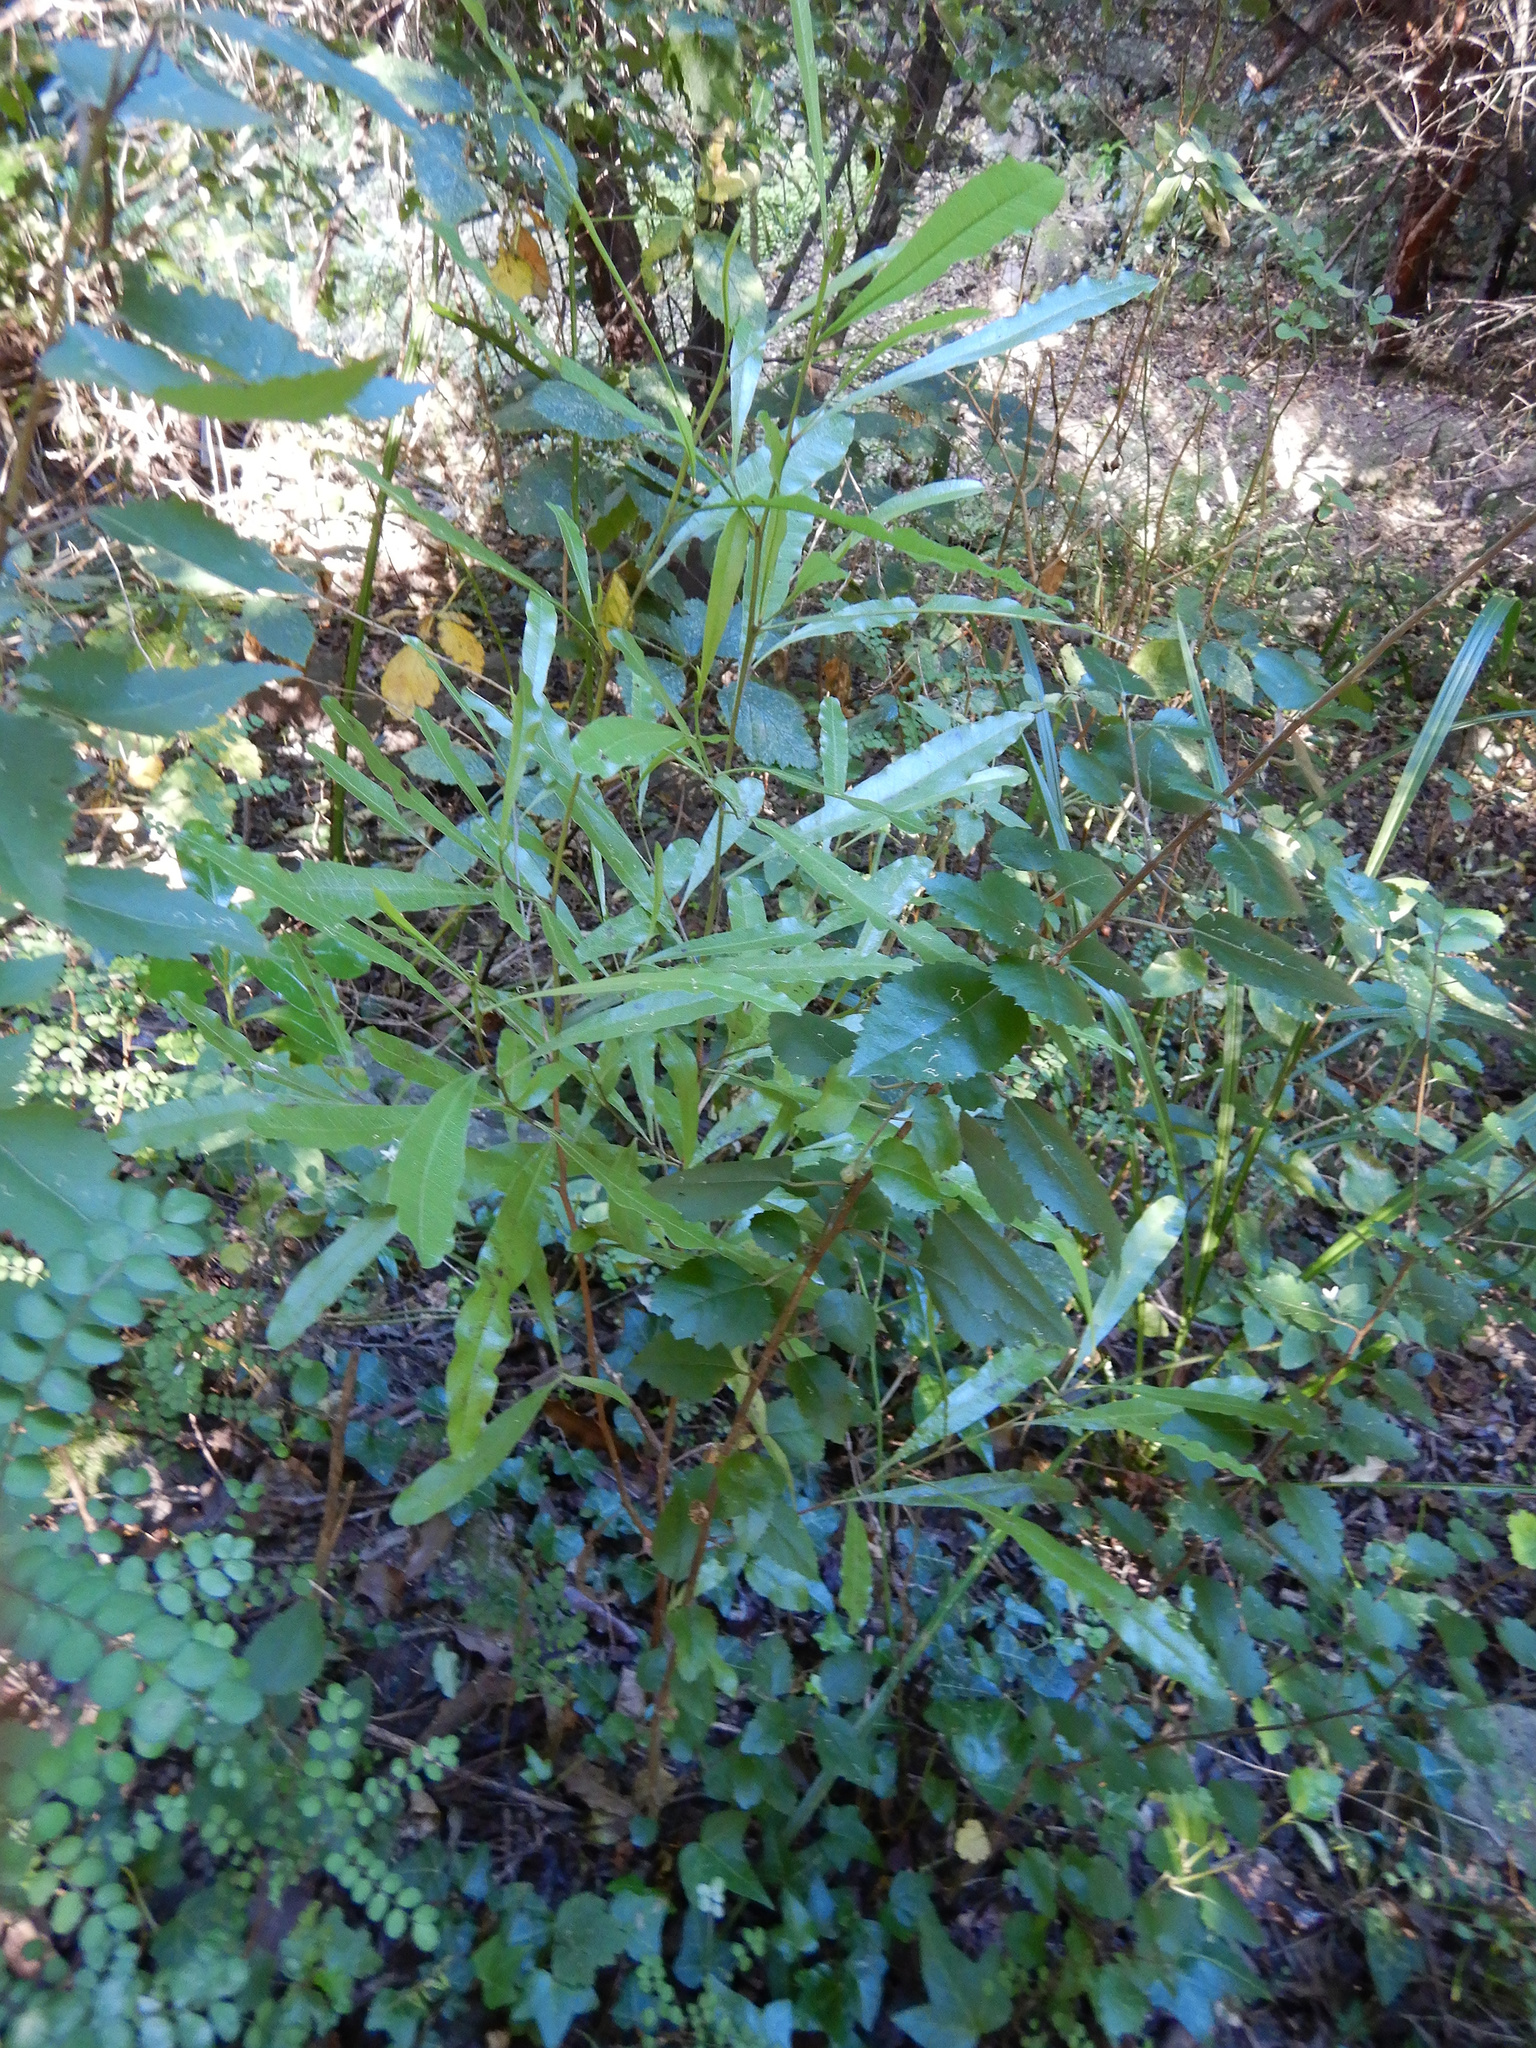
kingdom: Plantae
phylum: Tracheophyta
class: Magnoliopsida
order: Sapindales
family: Sapindaceae
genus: Dodonaea
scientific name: Dodonaea viscosa
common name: Hopbush
